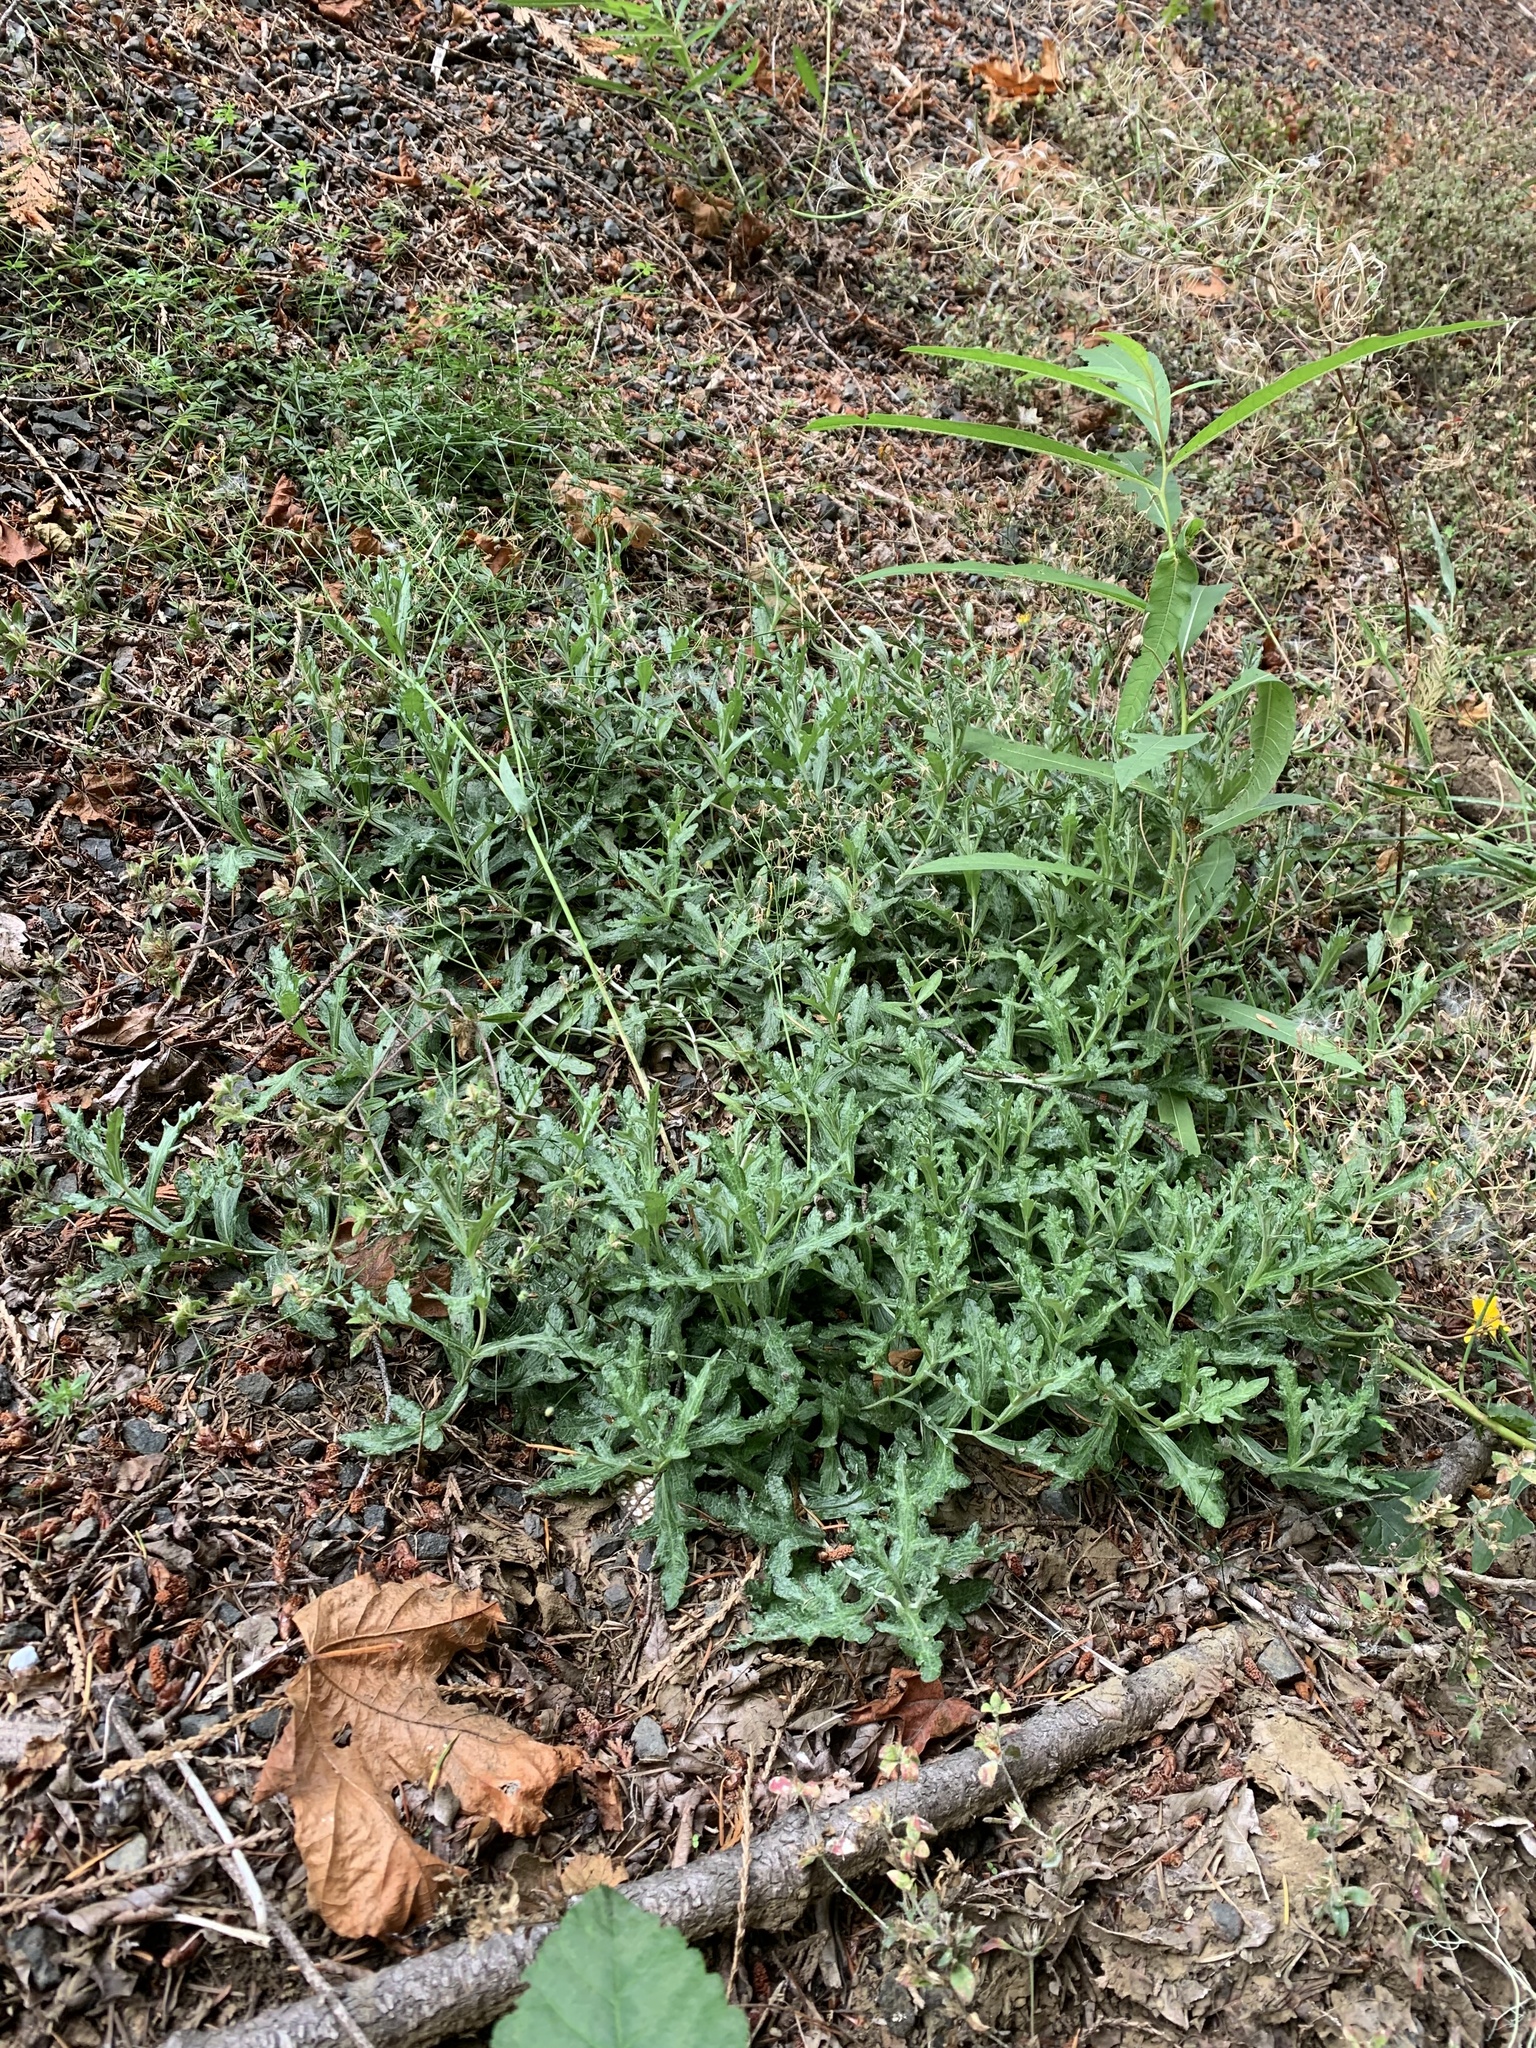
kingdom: Plantae
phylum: Tracheophyta
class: Magnoliopsida
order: Asterales
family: Asteraceae
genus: Eriophyllum
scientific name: Eriophyllum lanatum
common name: Common woolly-sunflower
